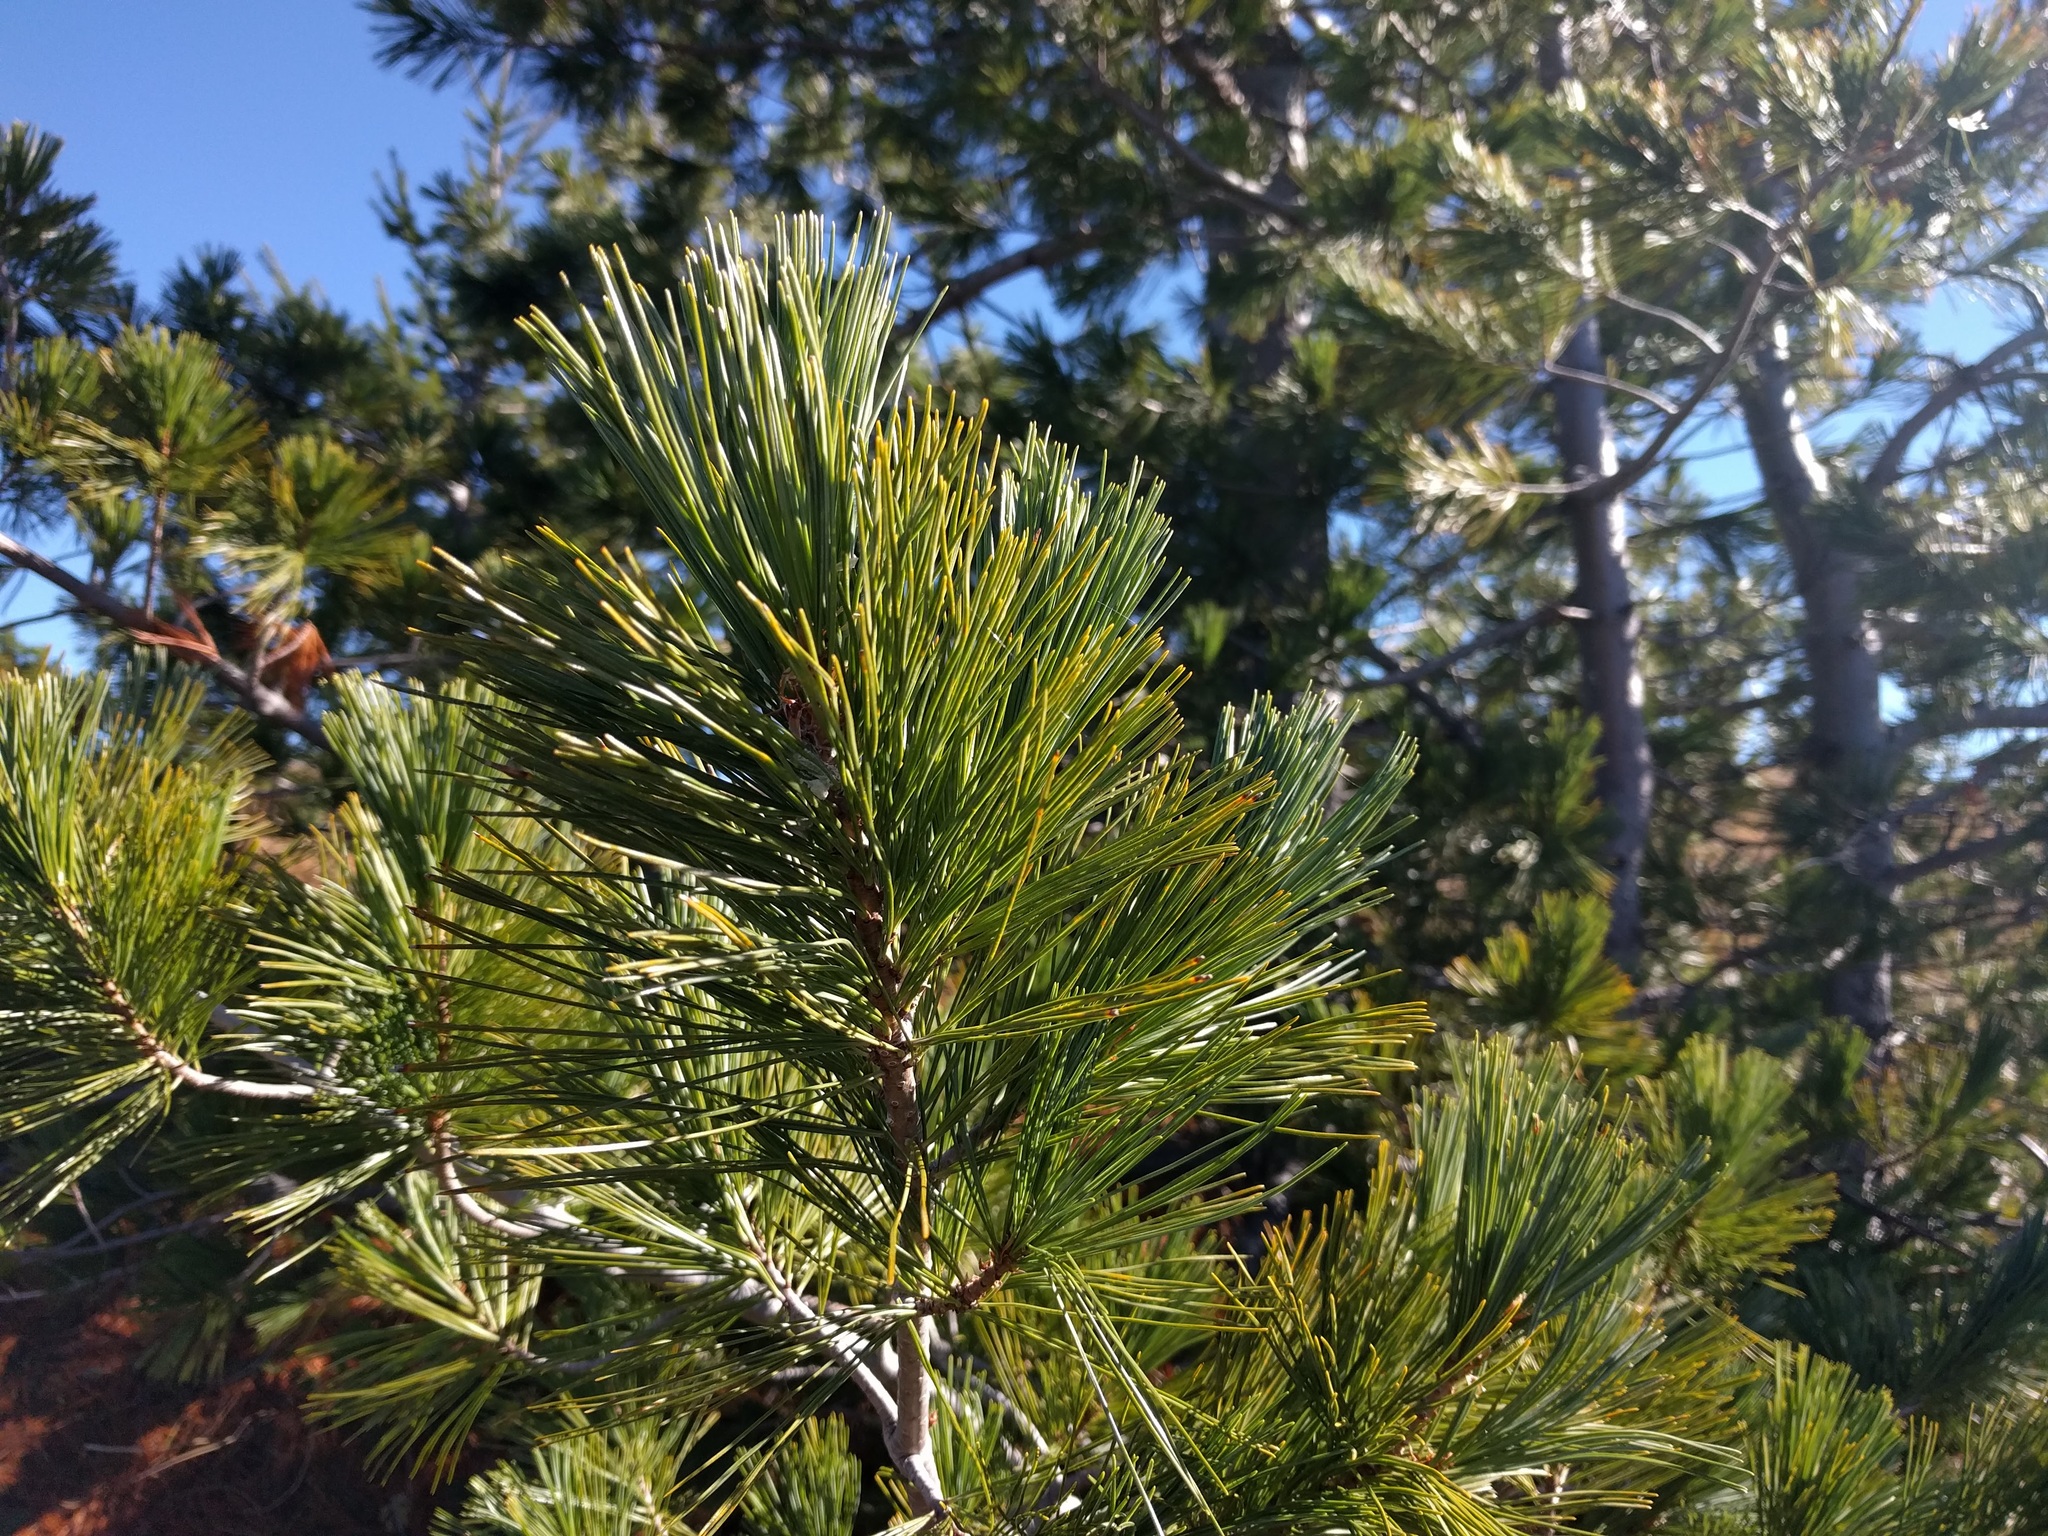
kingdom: Plantae
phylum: Tracheophyta
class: Pinopsida
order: Pinales
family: Pinaceae
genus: Pinus
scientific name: Pinus monticola
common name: Western white pine
